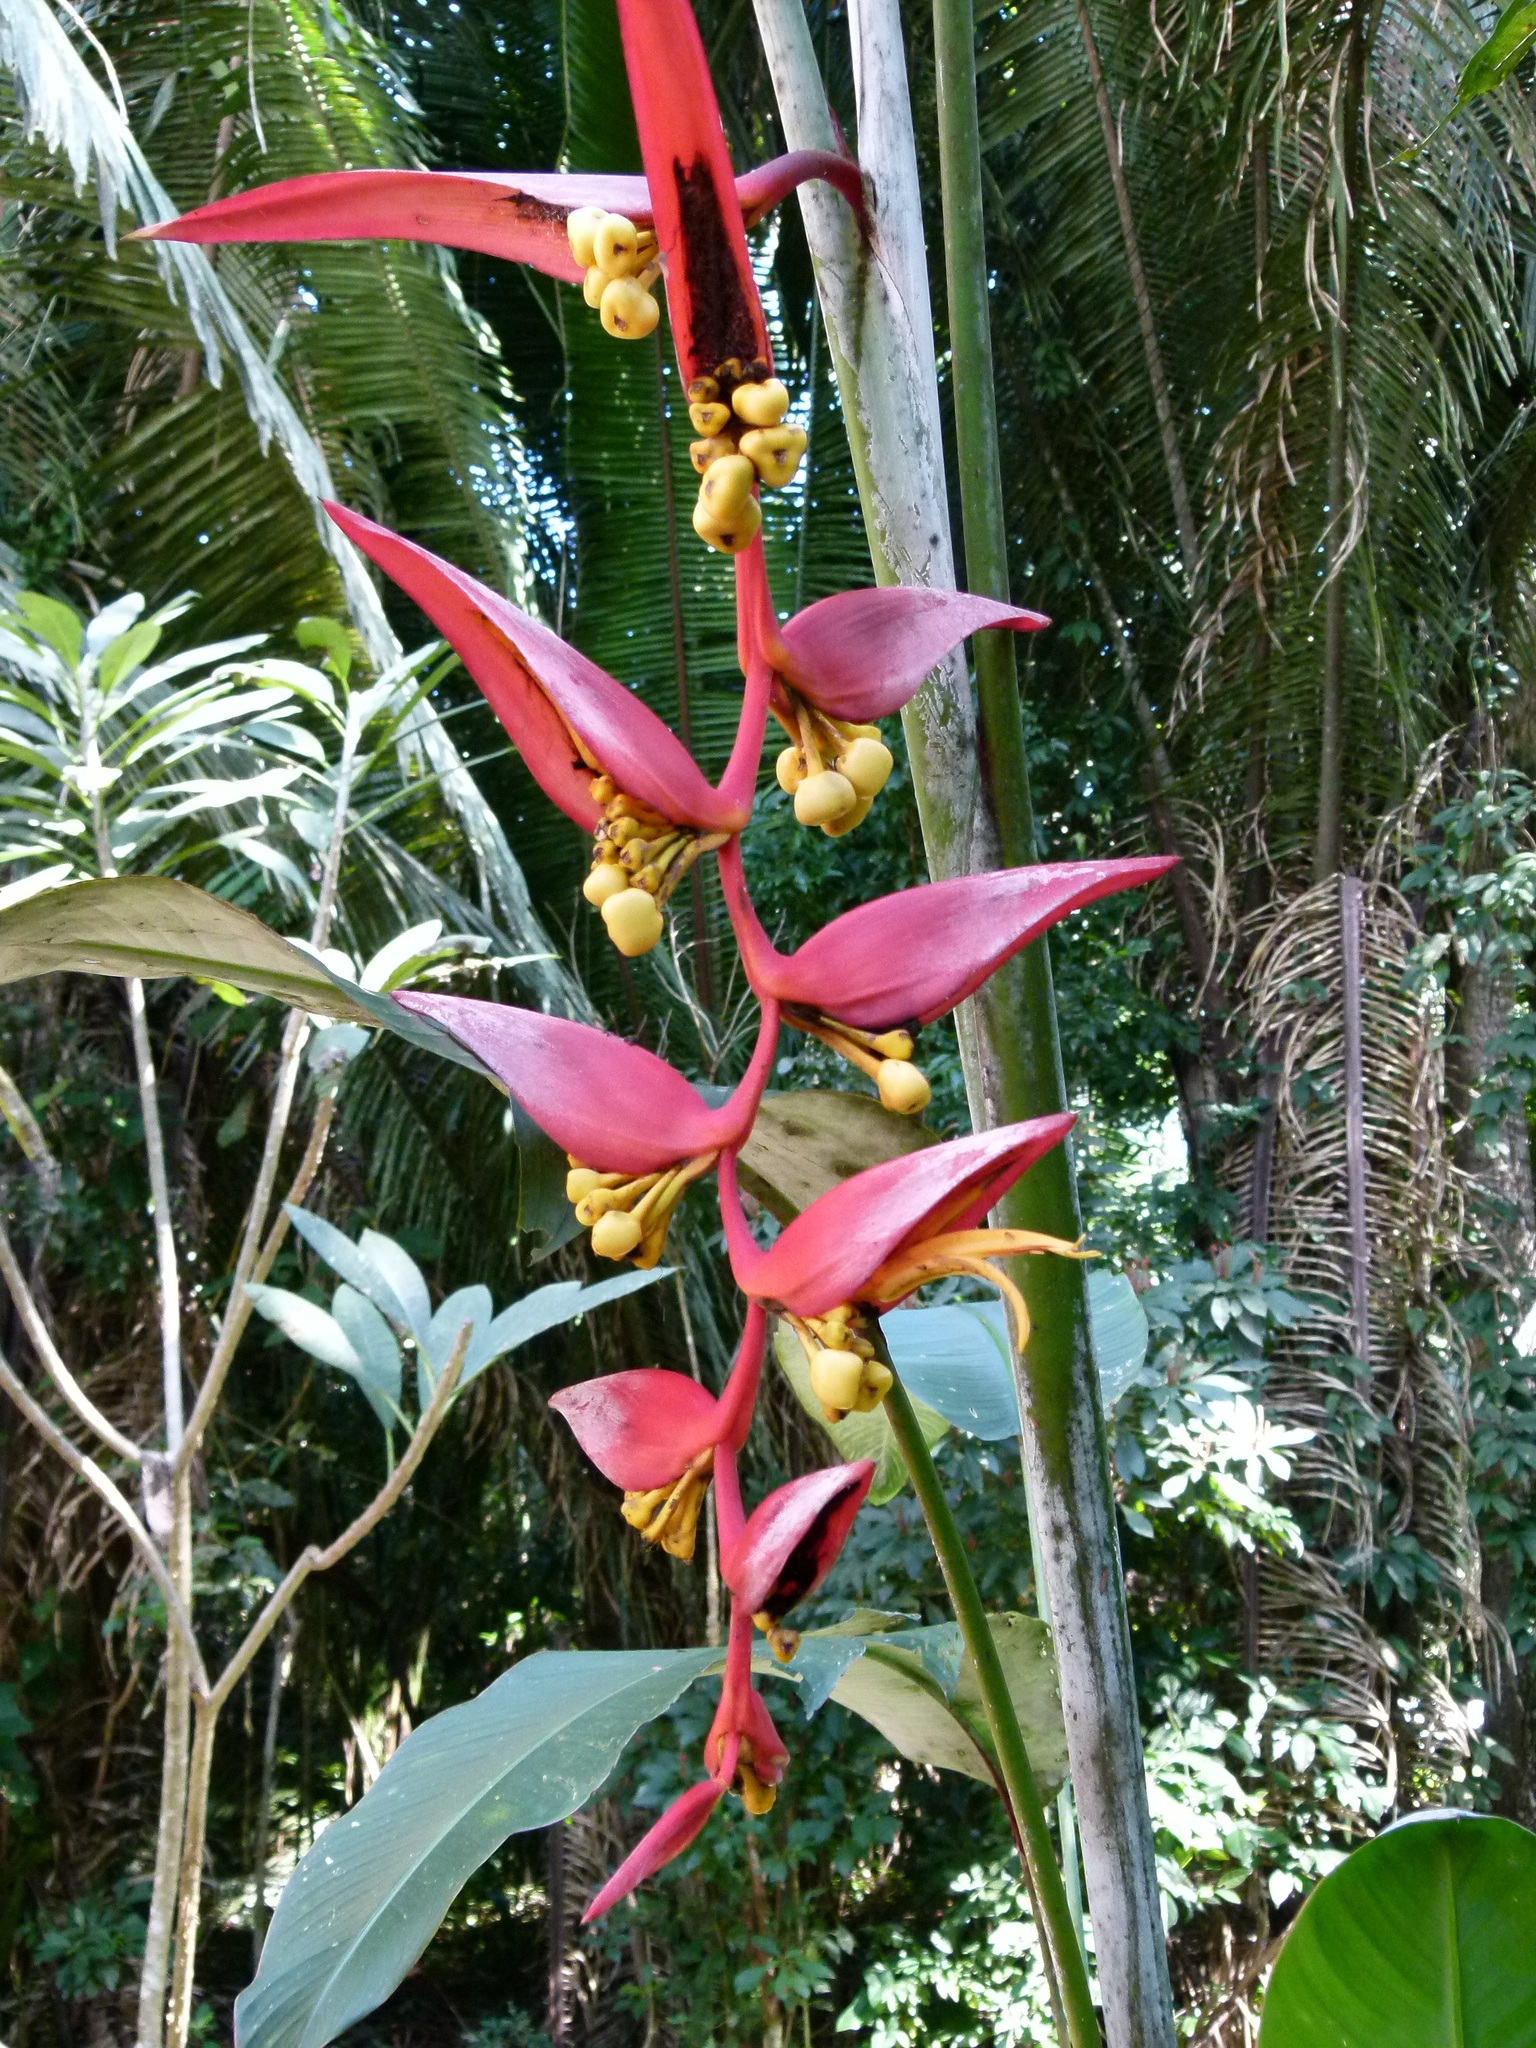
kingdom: Plantae
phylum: Tracheophyta
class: Liliopsida
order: Zingiberales
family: Heliconiaceae
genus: Heliconia
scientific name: Heliconia collinsiana
